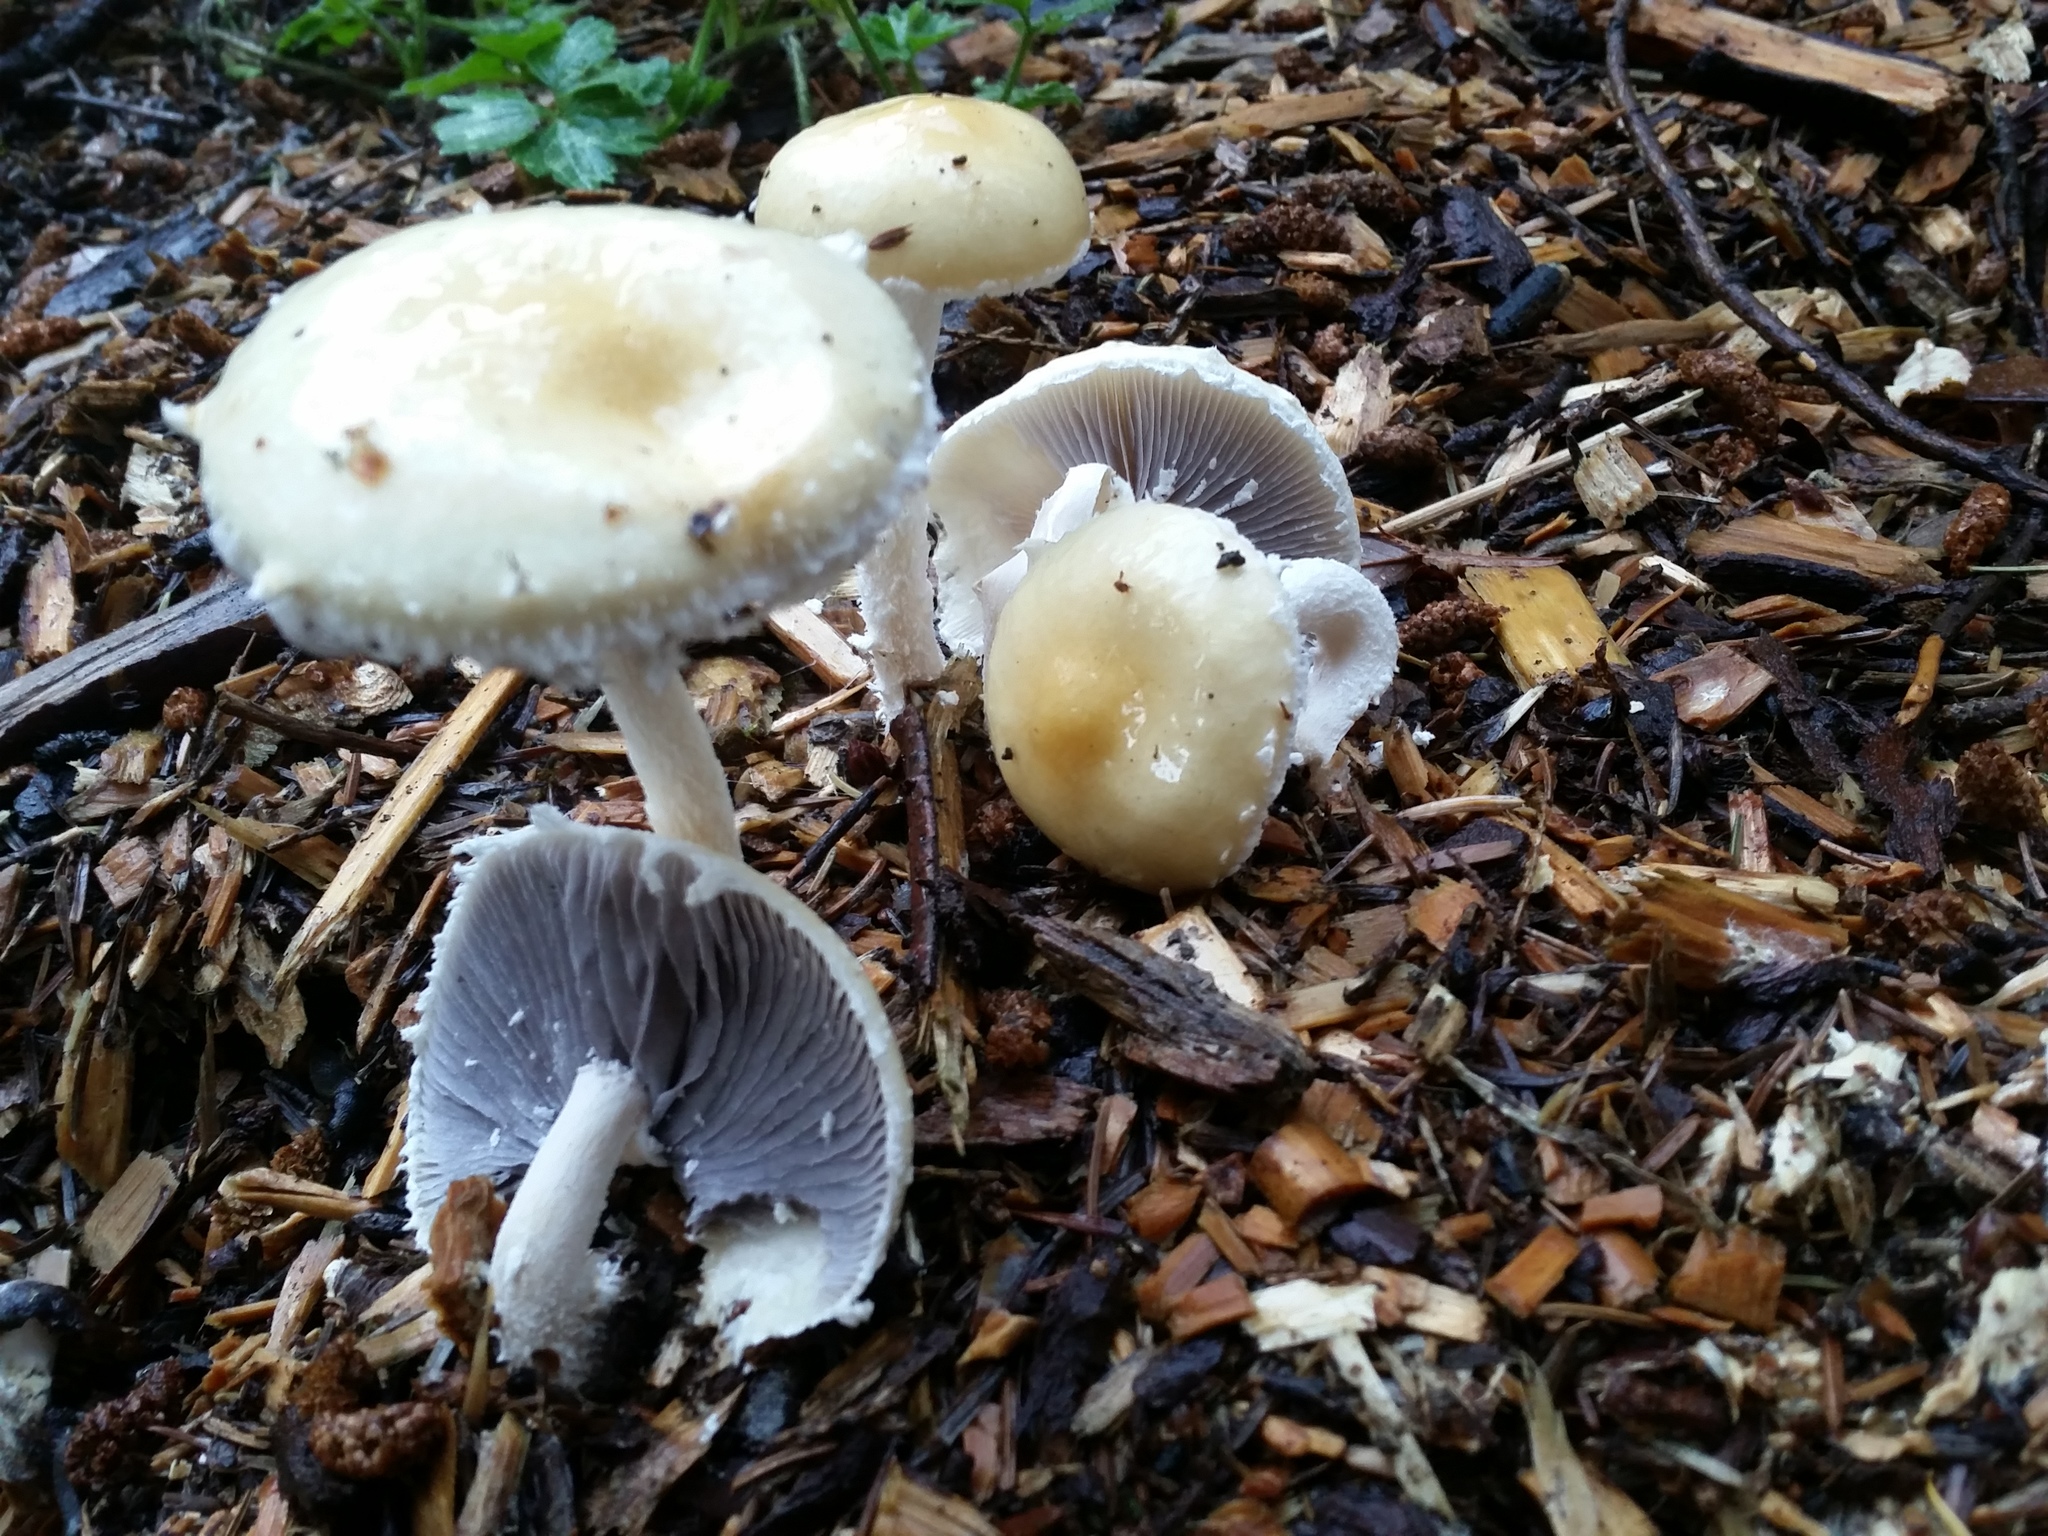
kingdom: Fungi
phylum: Basidiomycota
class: Agaricomycetes
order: Agaricales
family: Strophariaceae
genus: Stropharia
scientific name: Stropharia ambigua
